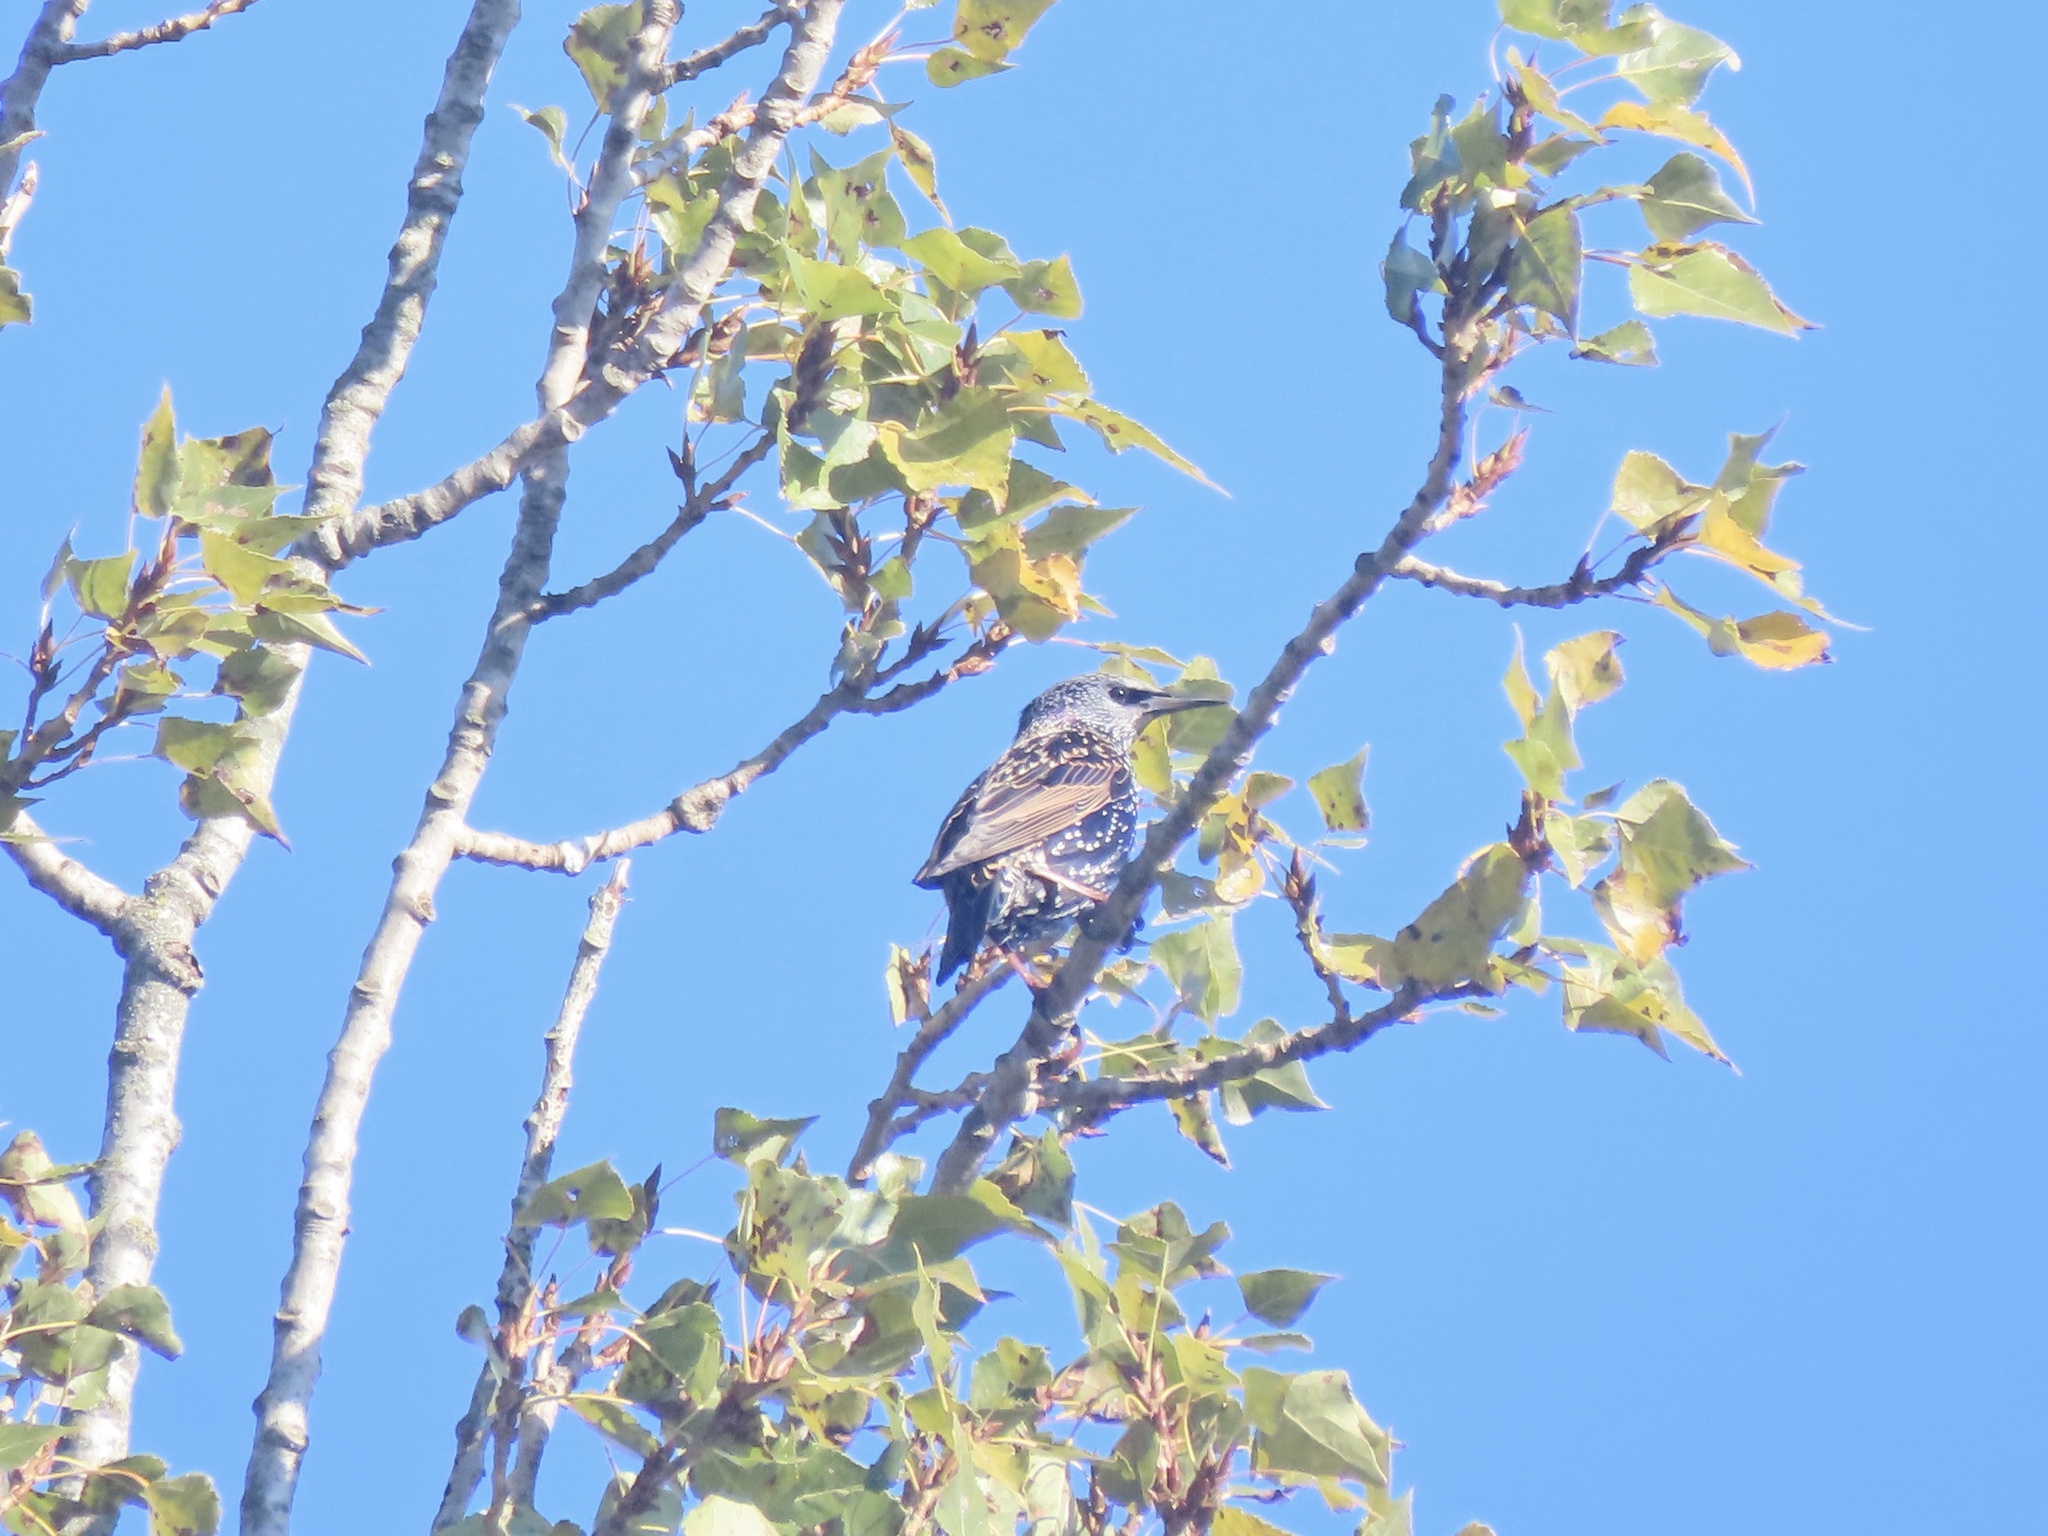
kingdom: Animalia
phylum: Chordata
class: Aves
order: Passeriformes
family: Sturnidae
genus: Sturnus
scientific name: Sturnus vulgaris
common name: Common starling
